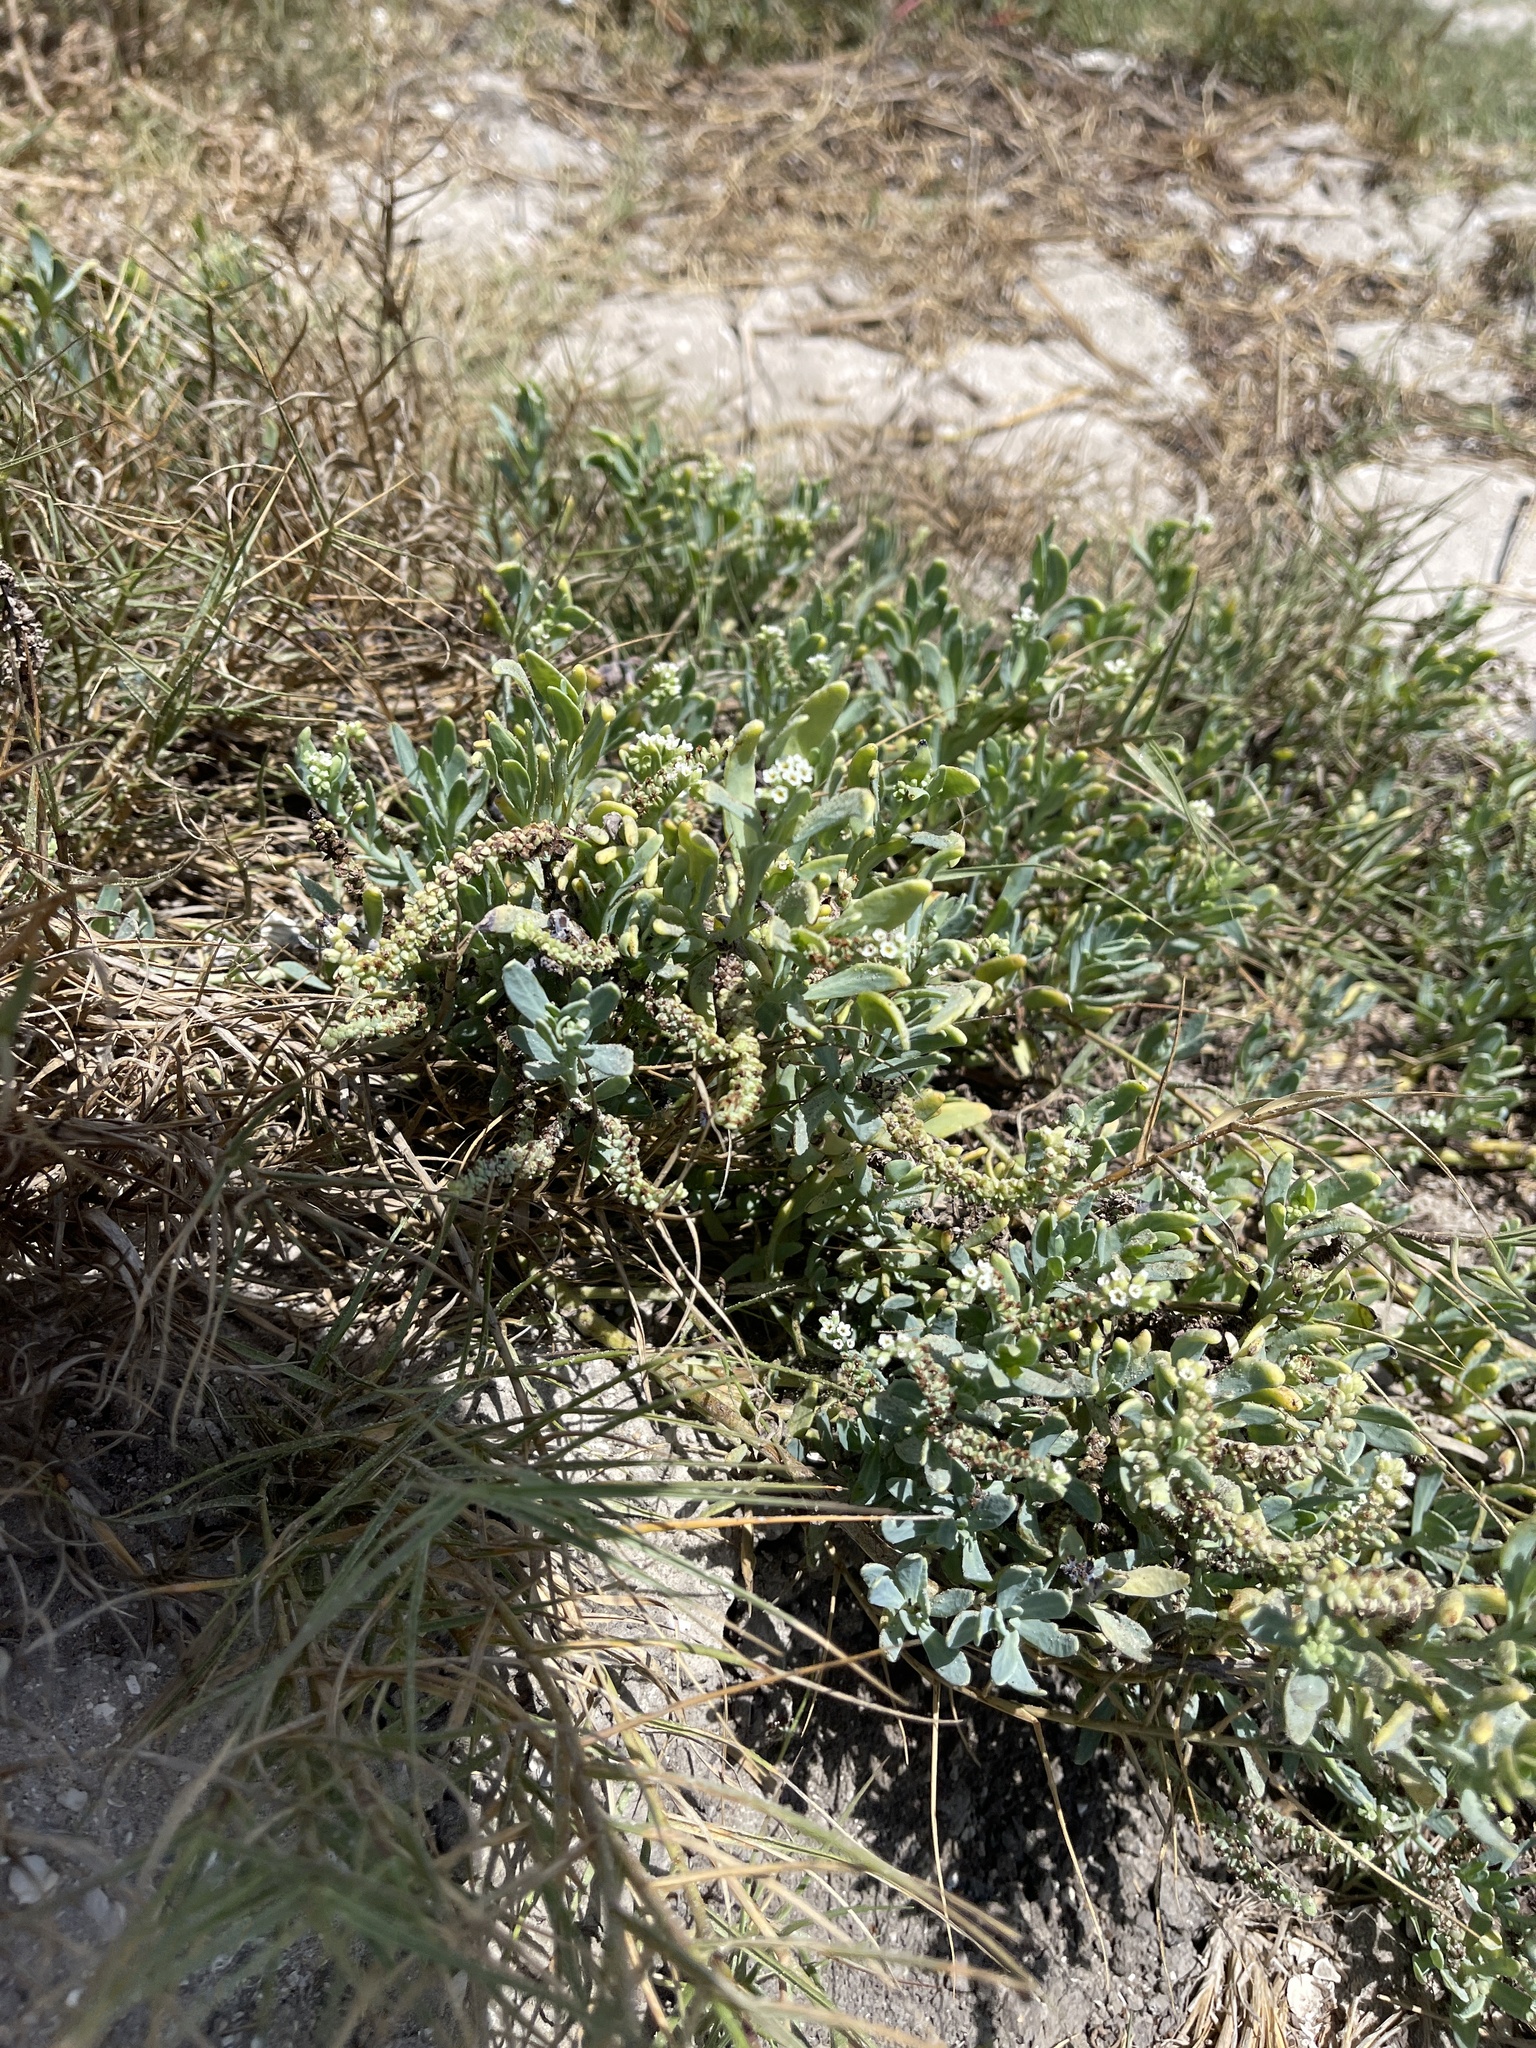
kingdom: Plantae
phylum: Tracheophyta
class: Magnoliopsida
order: Boraginales
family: Heliotropiaceae
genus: Heliotropium
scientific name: Heliotropium curassavicum
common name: Seaside heliotrope
